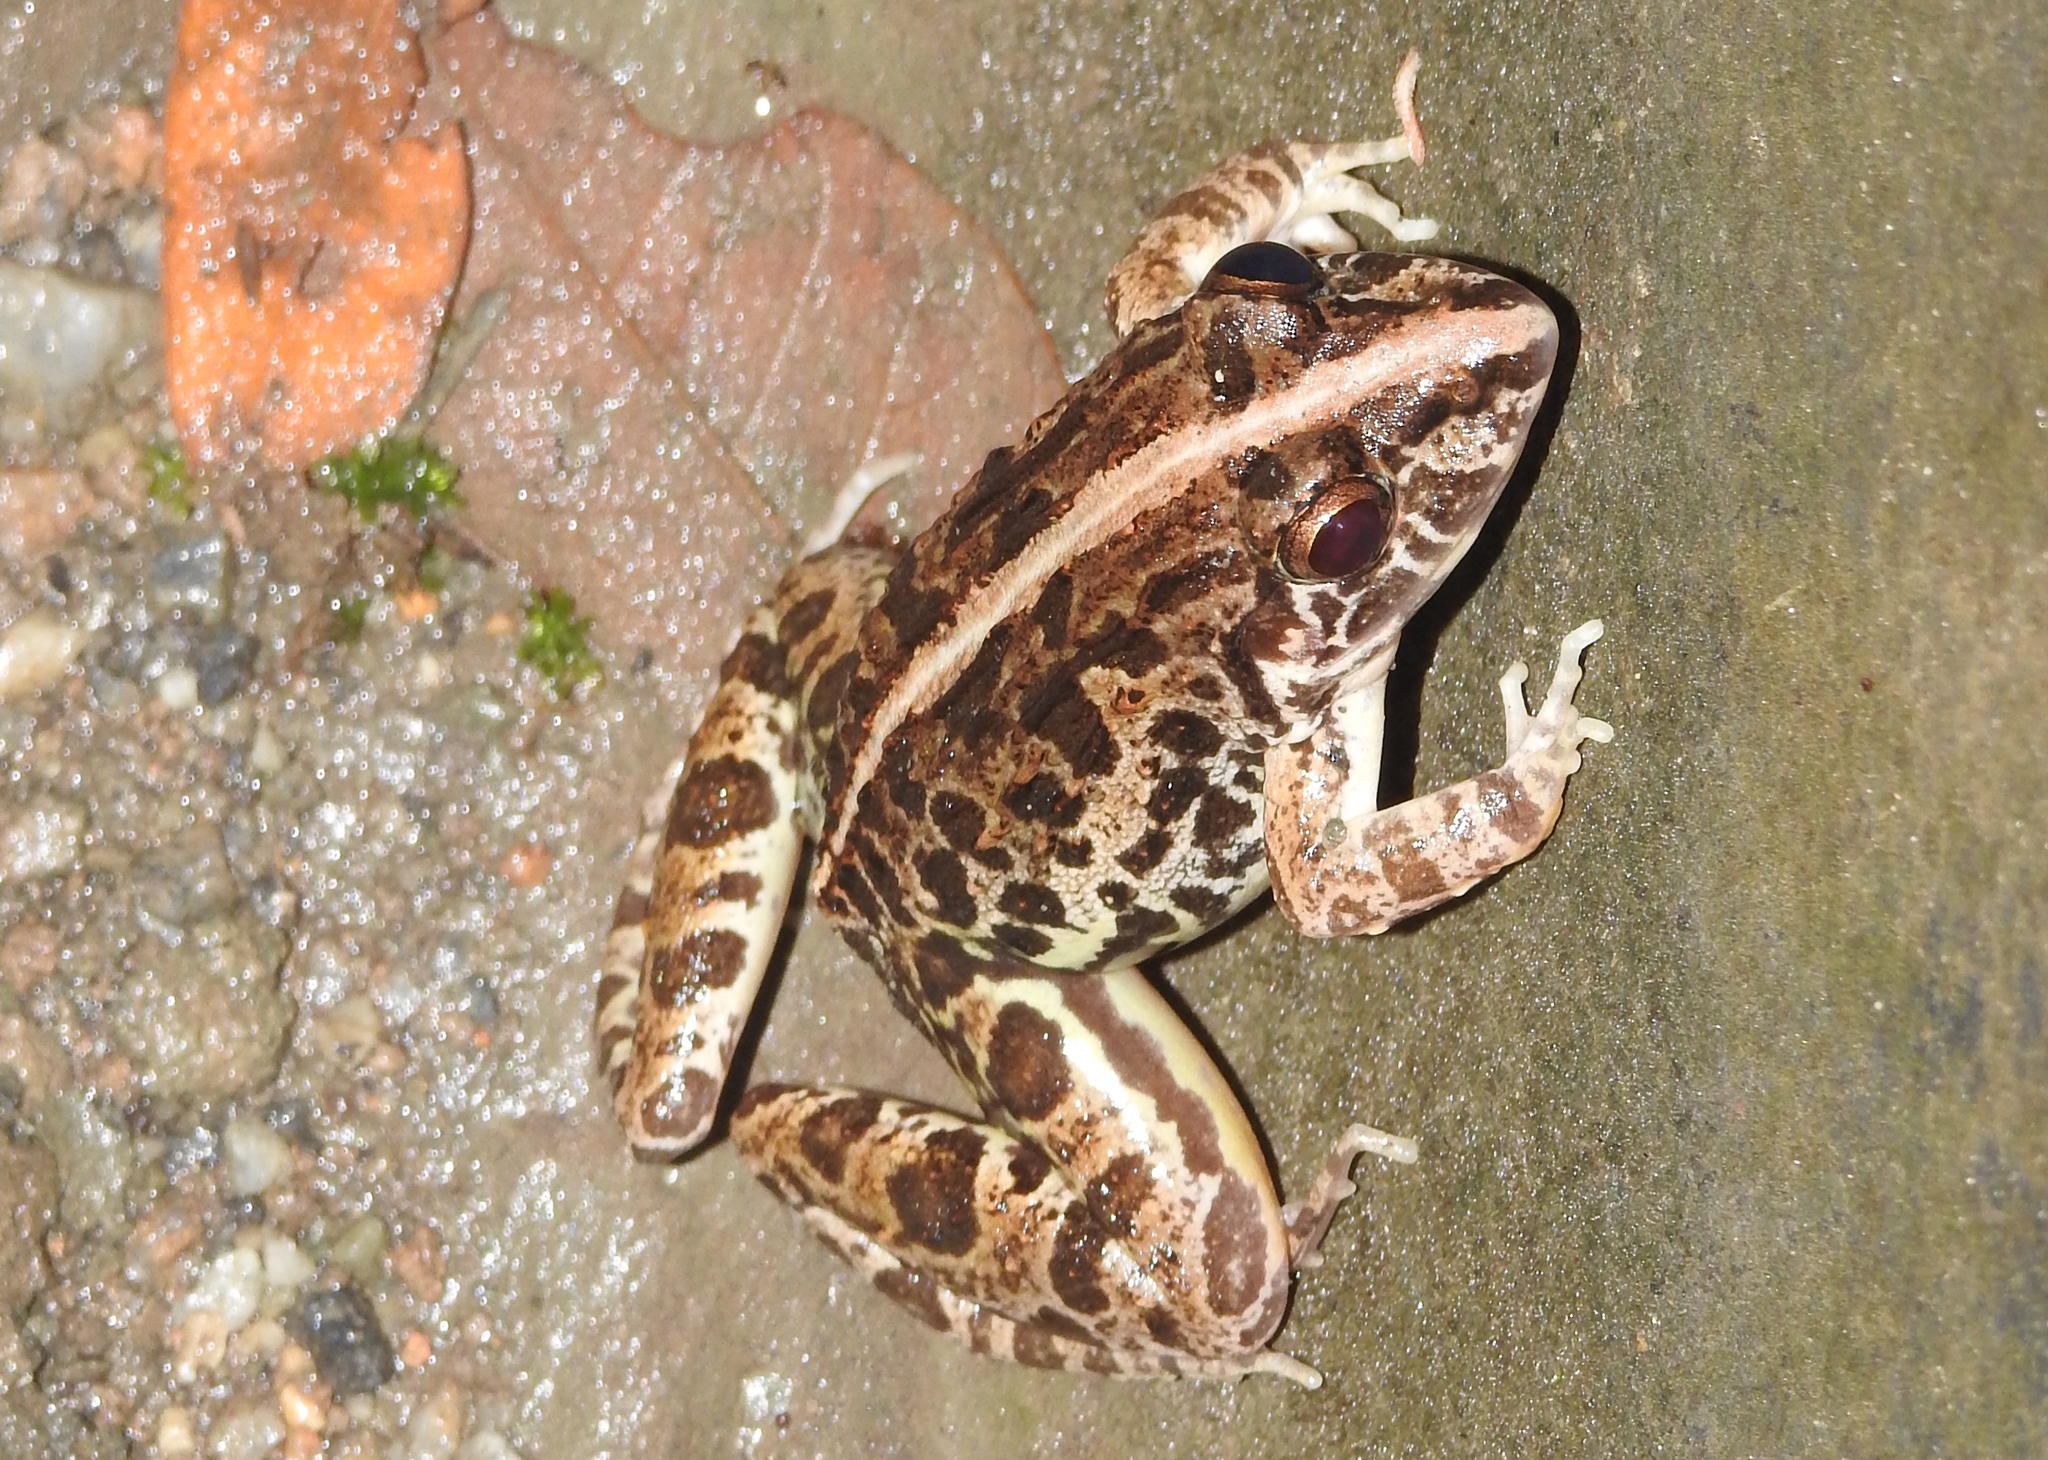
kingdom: Animalia
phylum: Chordata
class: Amphibia
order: Anura
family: Dicroglossidae
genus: Fejervarya
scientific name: Fejervarya limnocharis
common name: Asian grass frog/common pond frog/field frog/grass frog/indian rice frog
